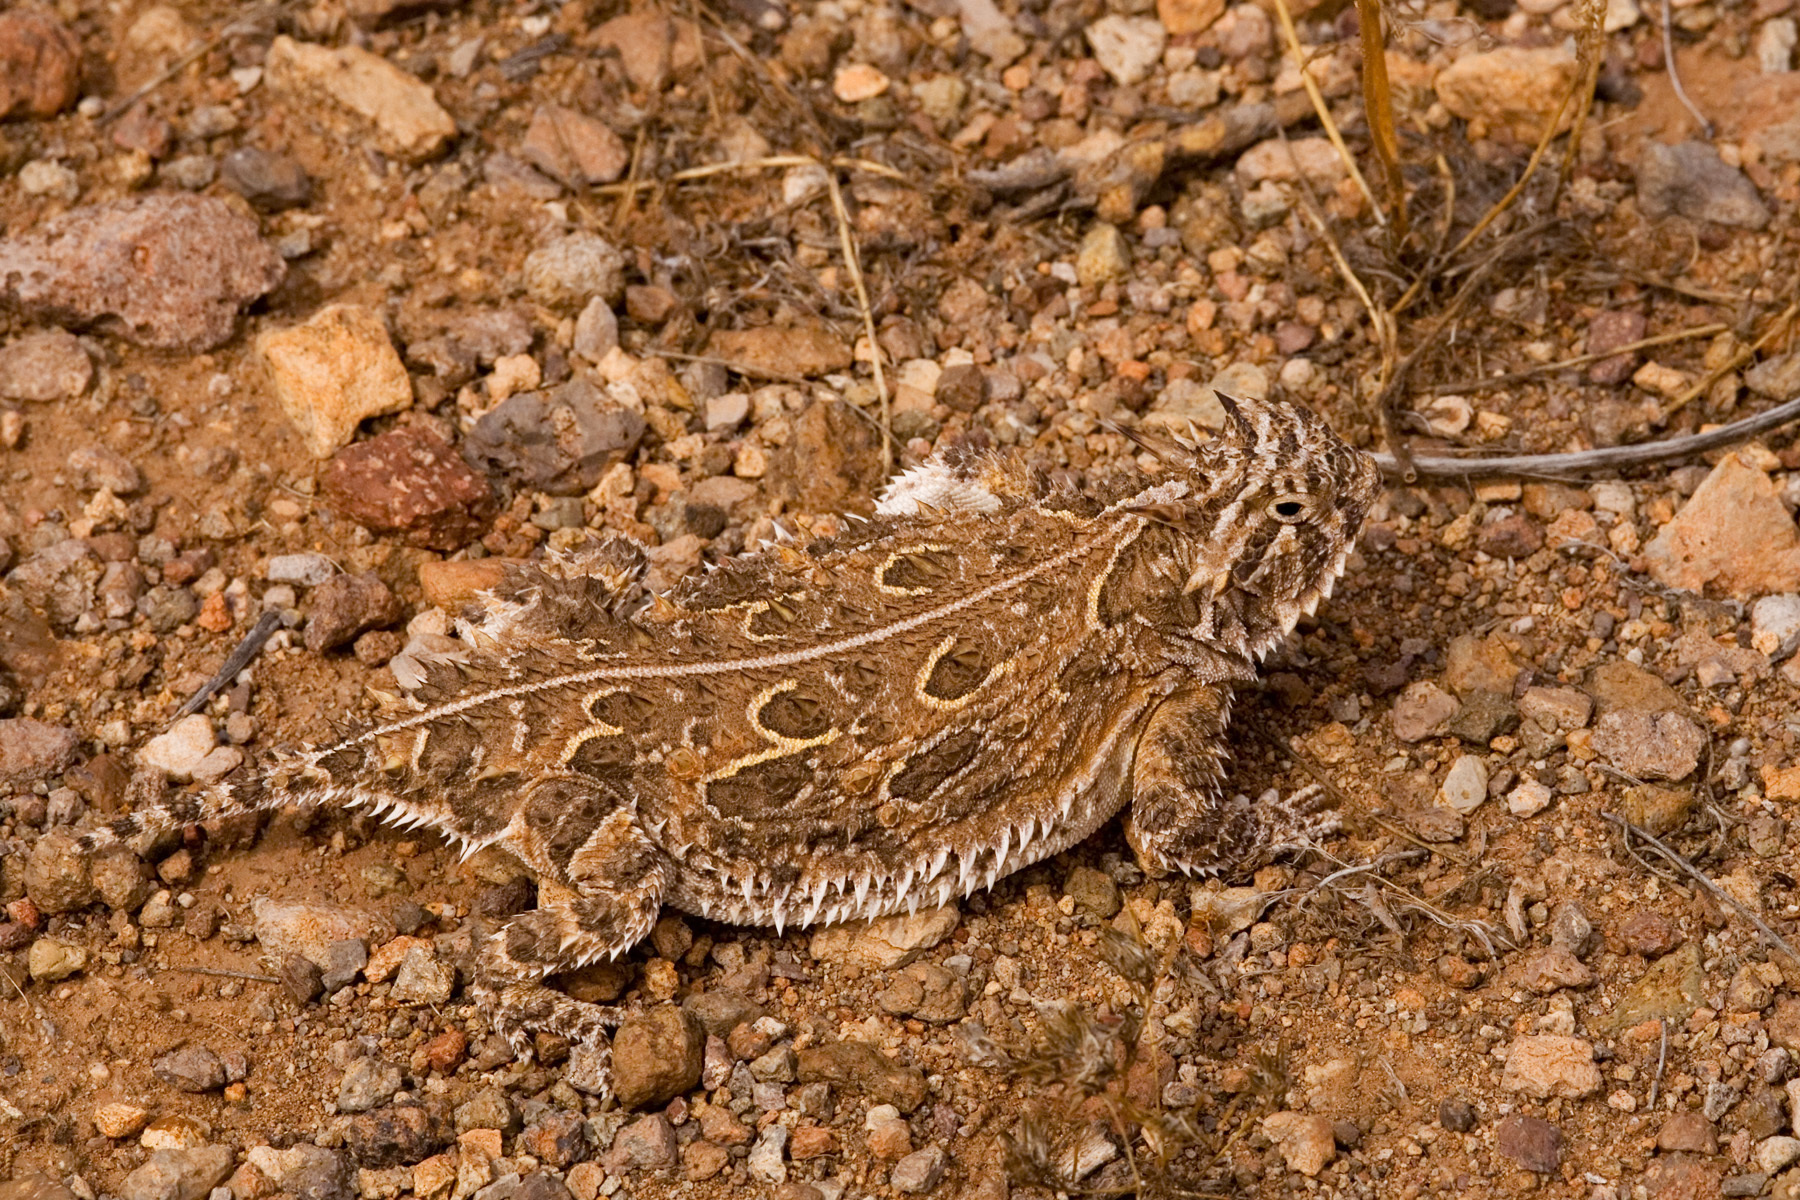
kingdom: Animalia
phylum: Chordata
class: Squamata
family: Phrynosomatidae
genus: Phrynosoma
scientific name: Phrynosoma cornutum
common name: Texas horned lizard
